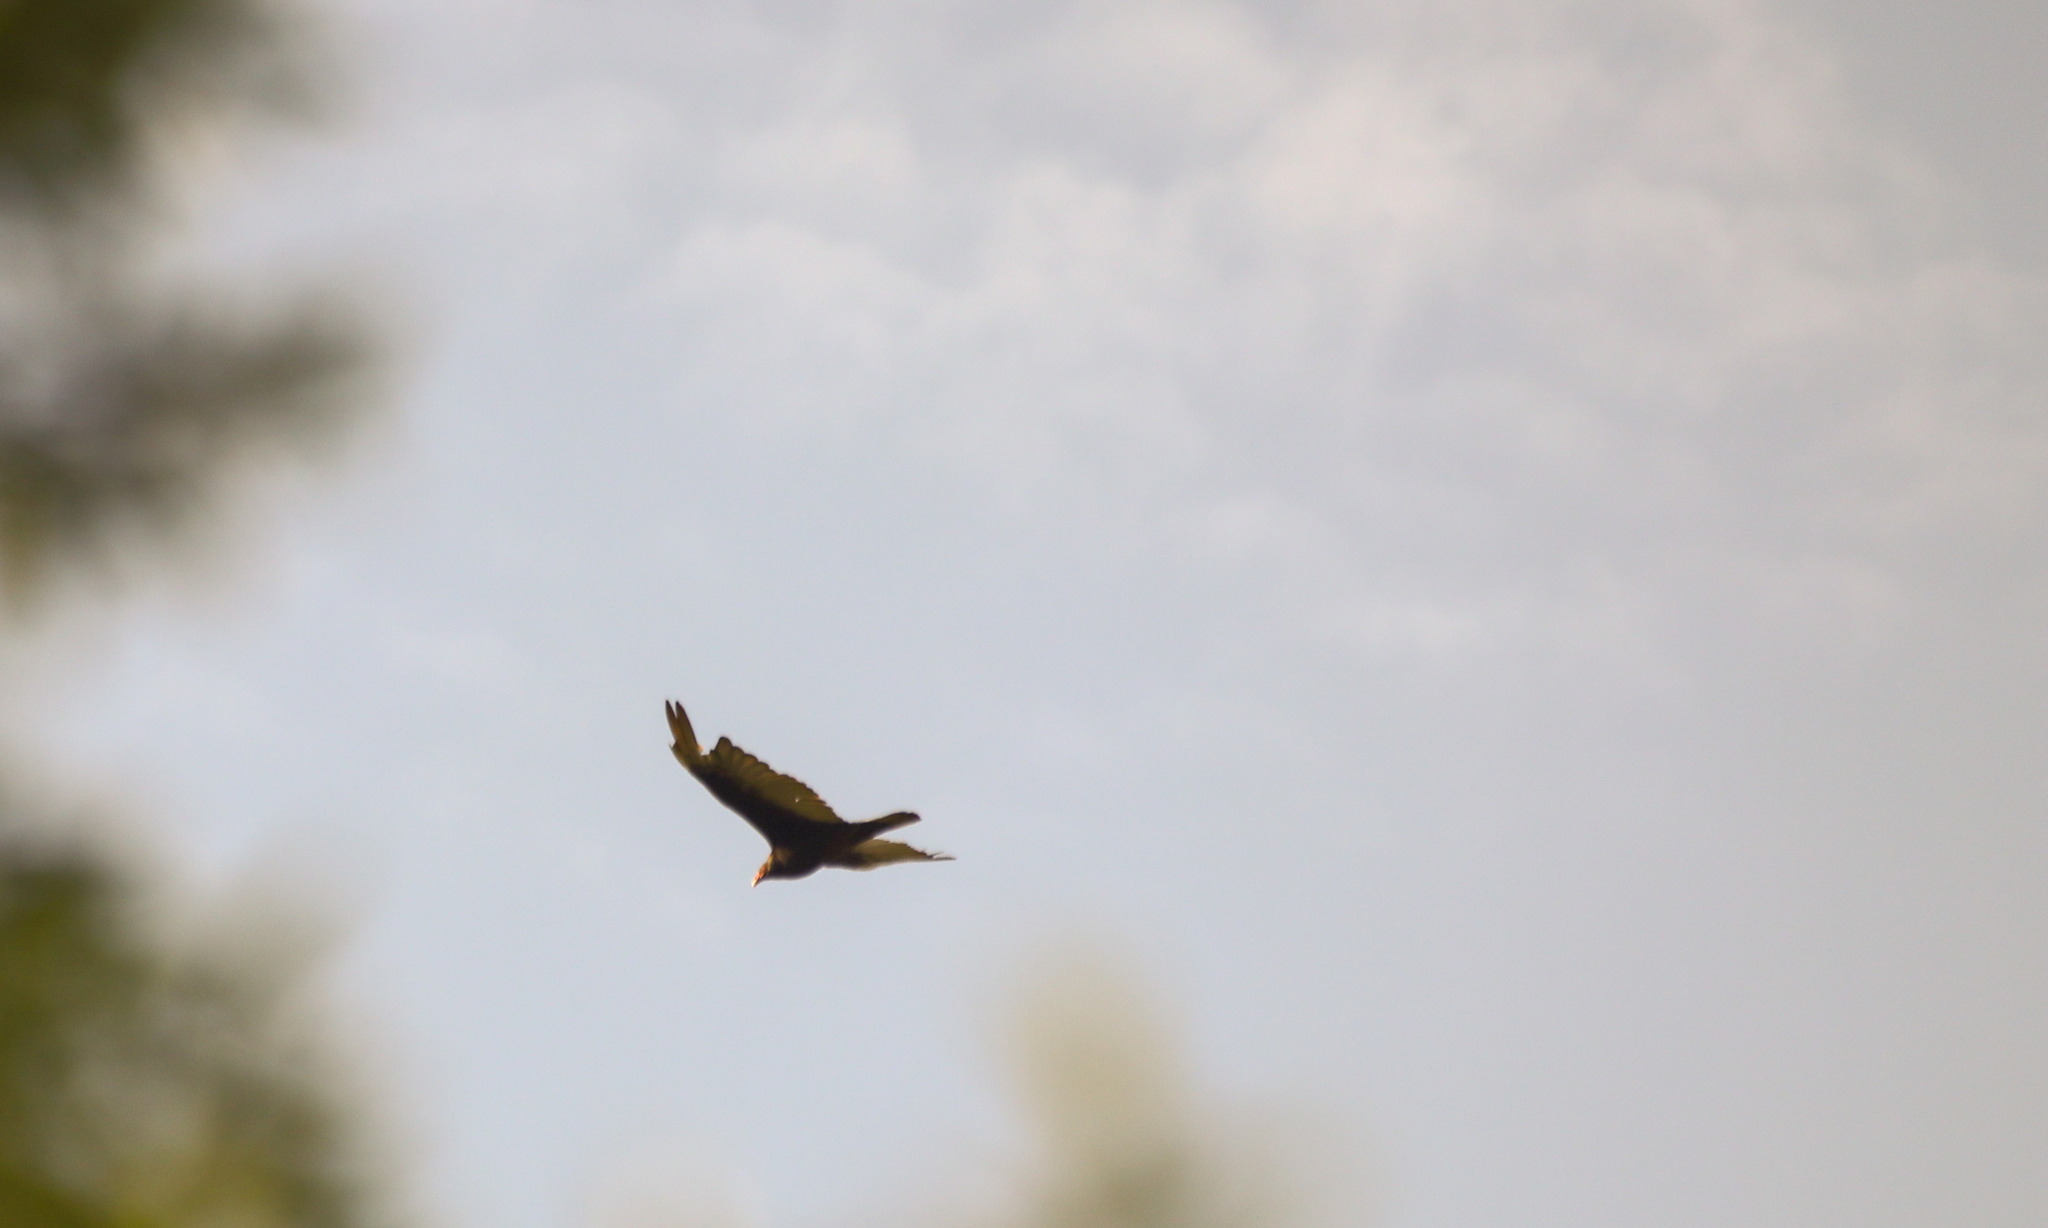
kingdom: Animalia
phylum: Chordata
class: Aves
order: Accipitriformes
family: Cathartidae
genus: Cathartes
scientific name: Cathartes aura
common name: Turkey vulture
